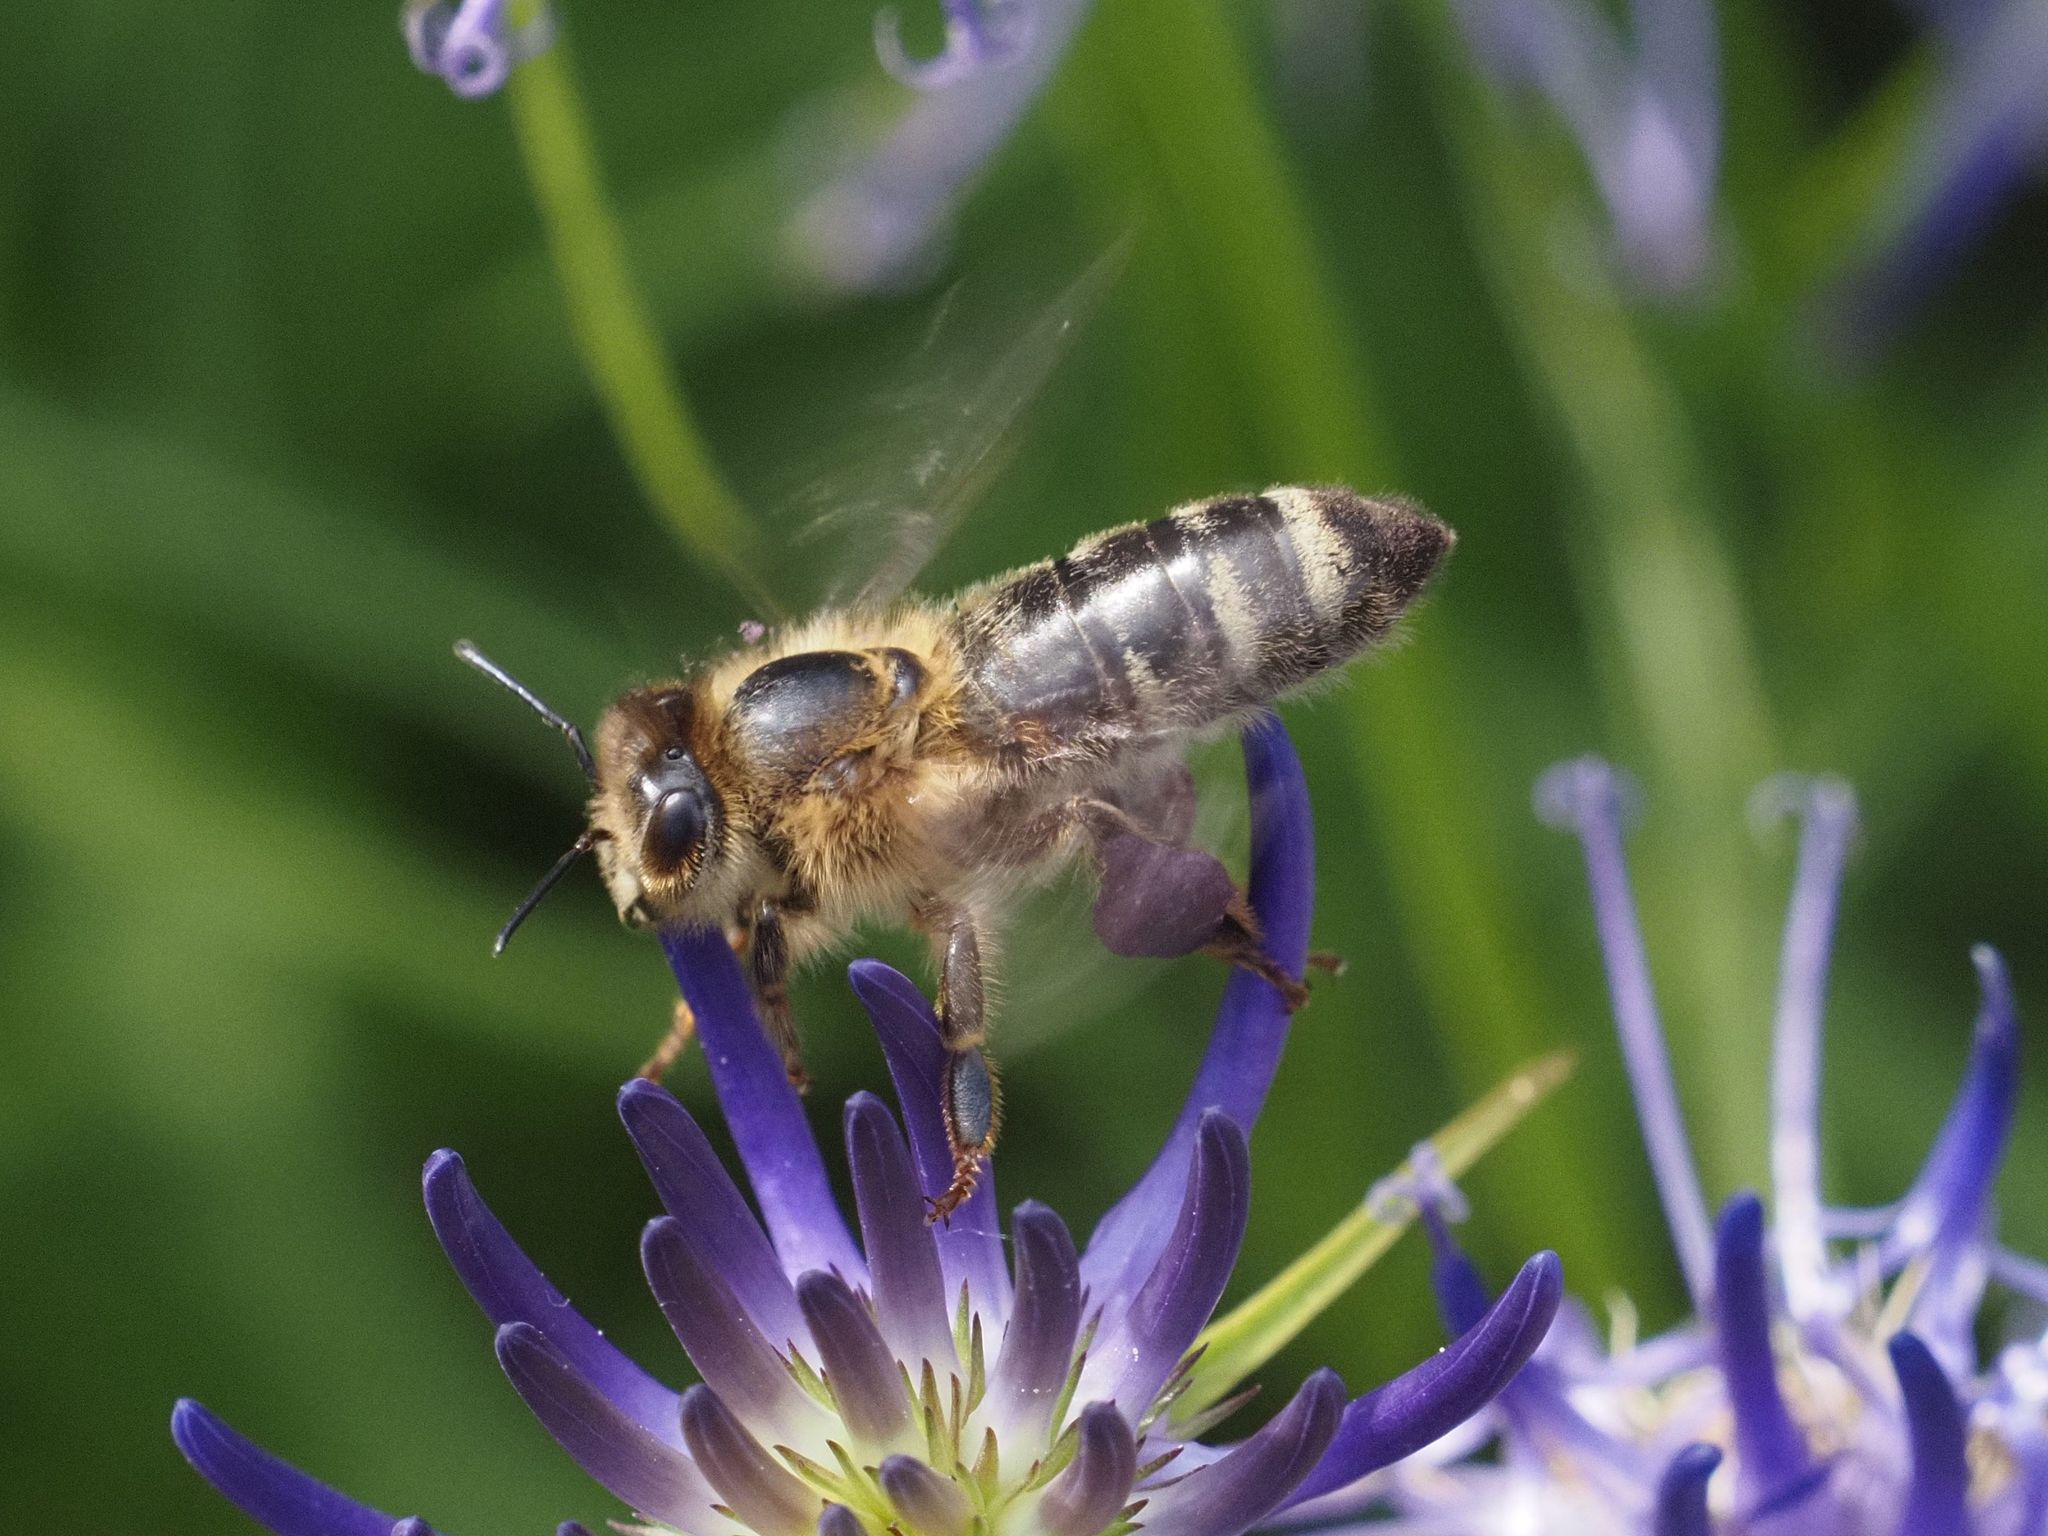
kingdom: Animalia
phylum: Arthropoda
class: Insecta
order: Hymenoptera
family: Apidae
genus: Apis
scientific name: Apis mellifera
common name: Honey bee
